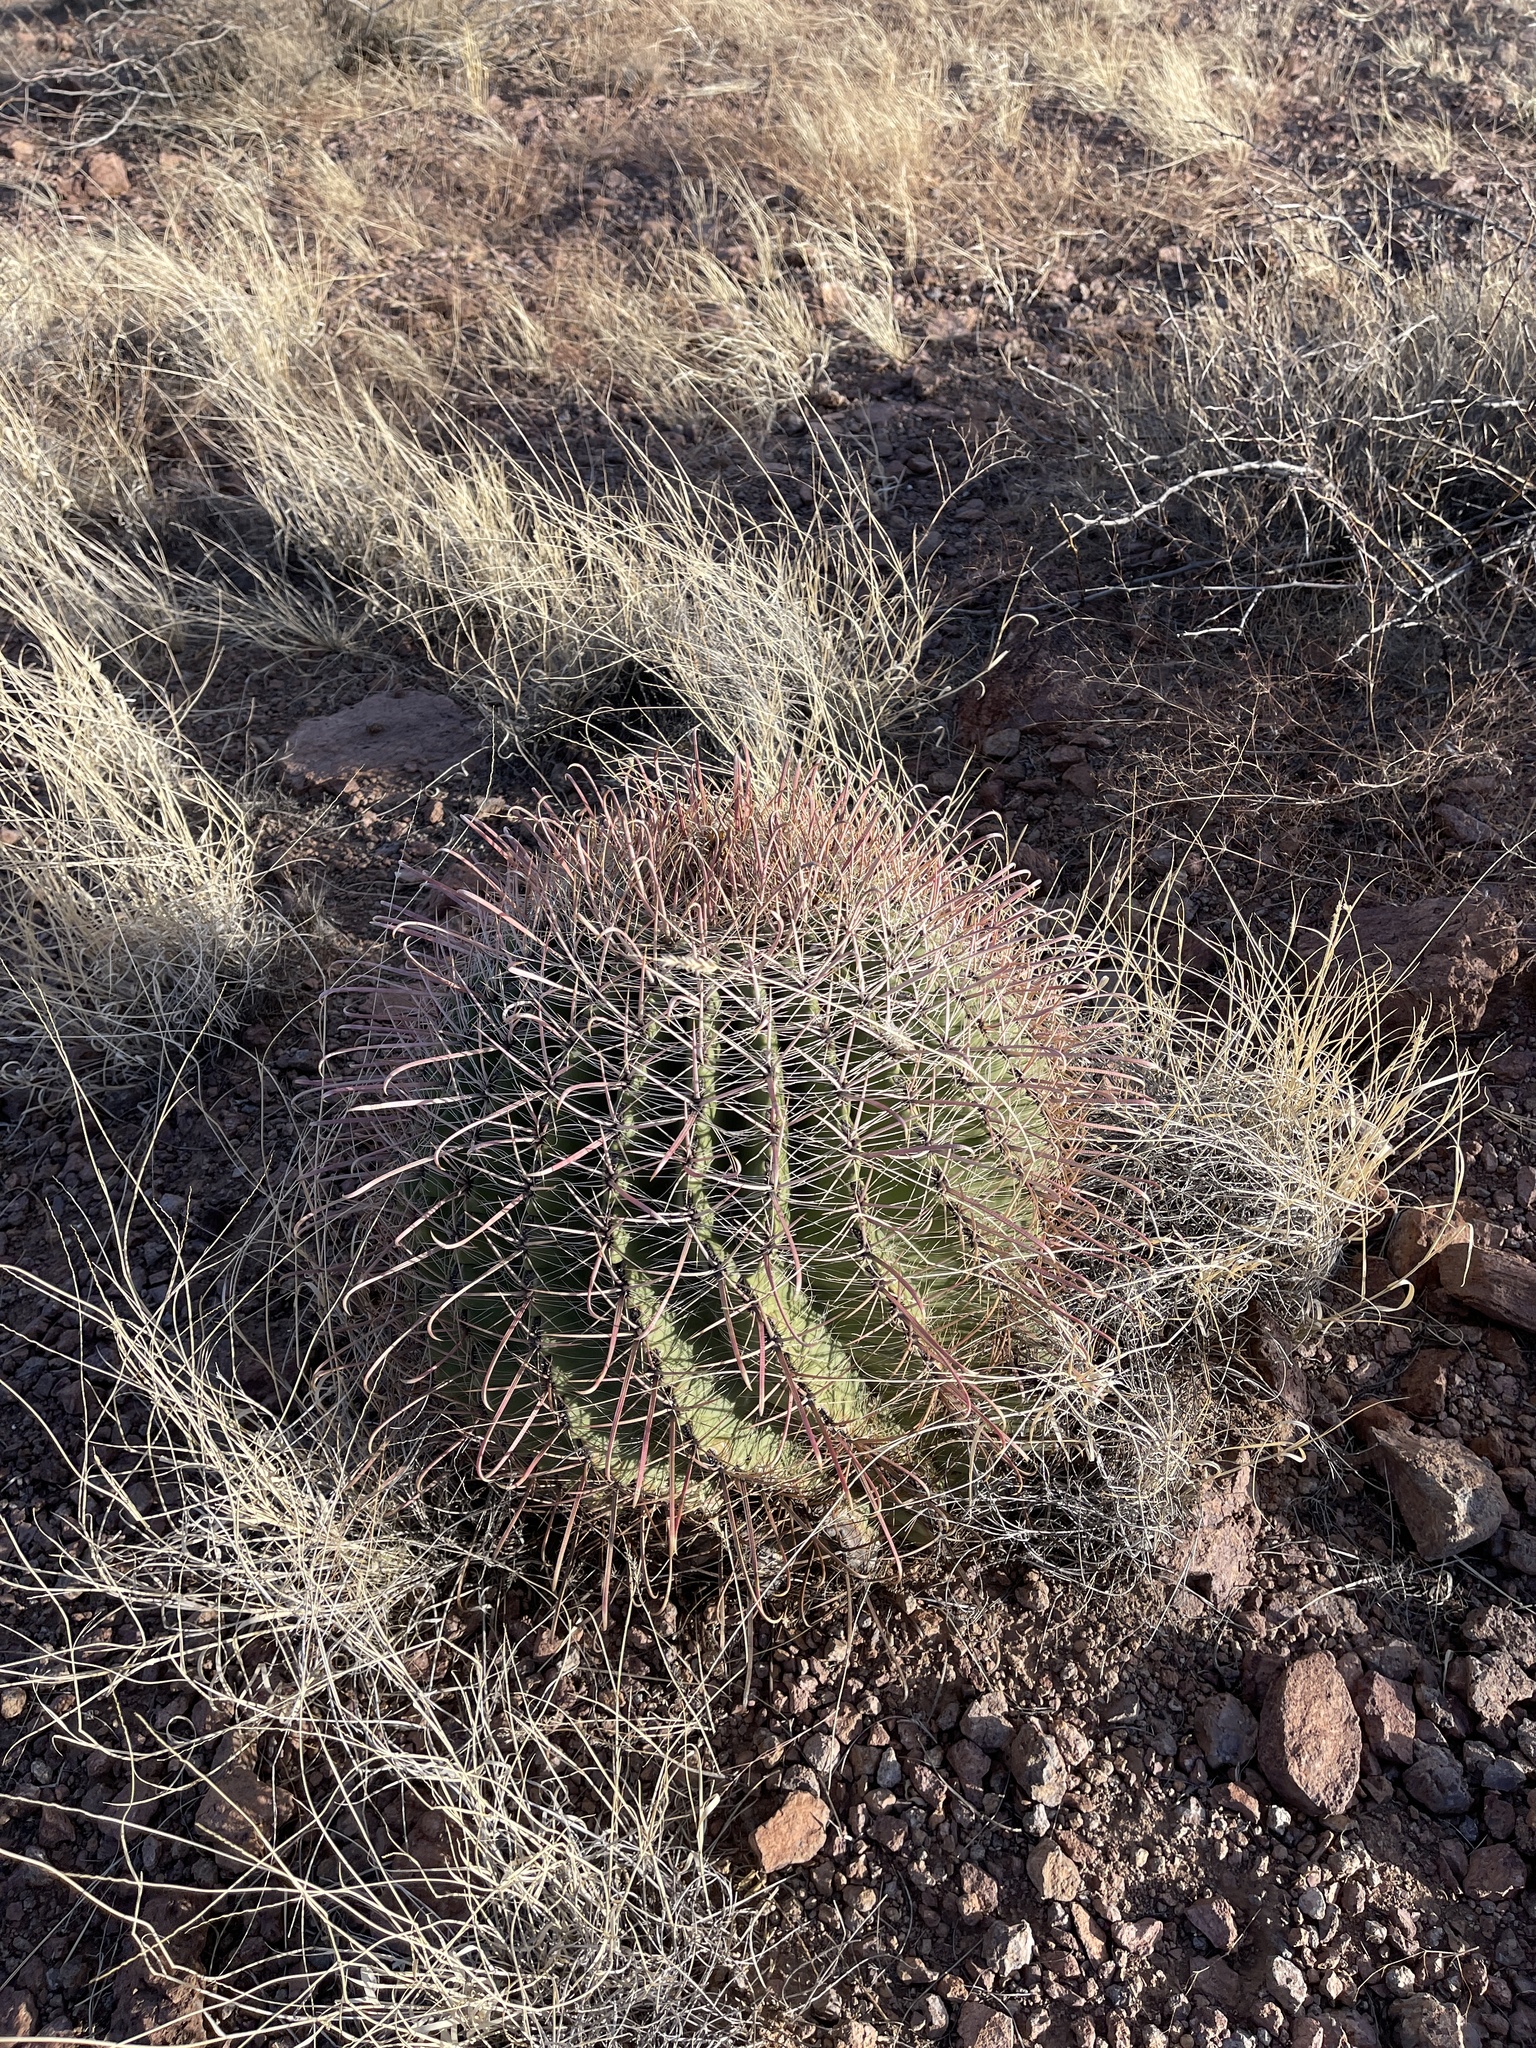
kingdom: Plantae
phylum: Tracheophyta
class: Magnoliopsida
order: Caryophyllales
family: Cactaceae
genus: Ferocactus
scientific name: Ferocactus wislizeni
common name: Candy barrel cactus
